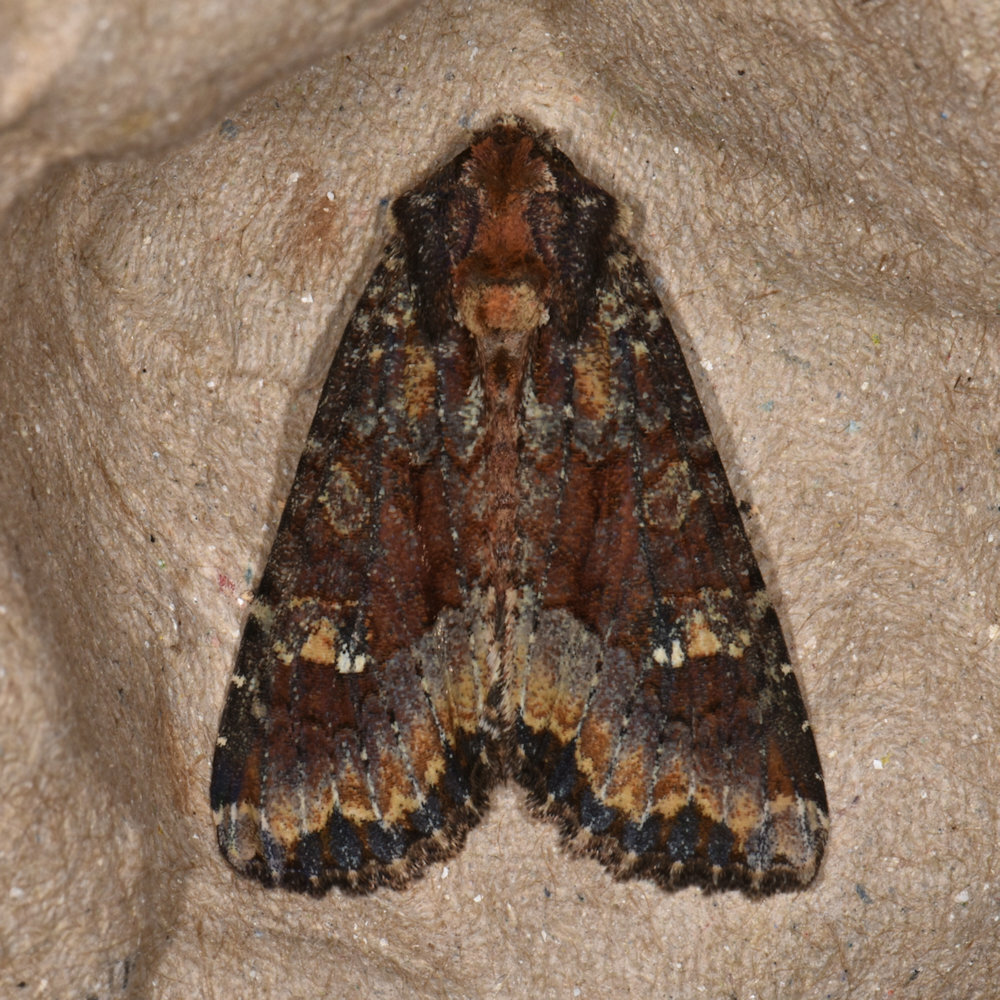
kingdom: Animalia
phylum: Arthropoda
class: Insecta
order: Lepidoptera
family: Noctuidae
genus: Apamea
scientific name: Apamea amputatrix
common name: Yellow-headed cutworm moth
